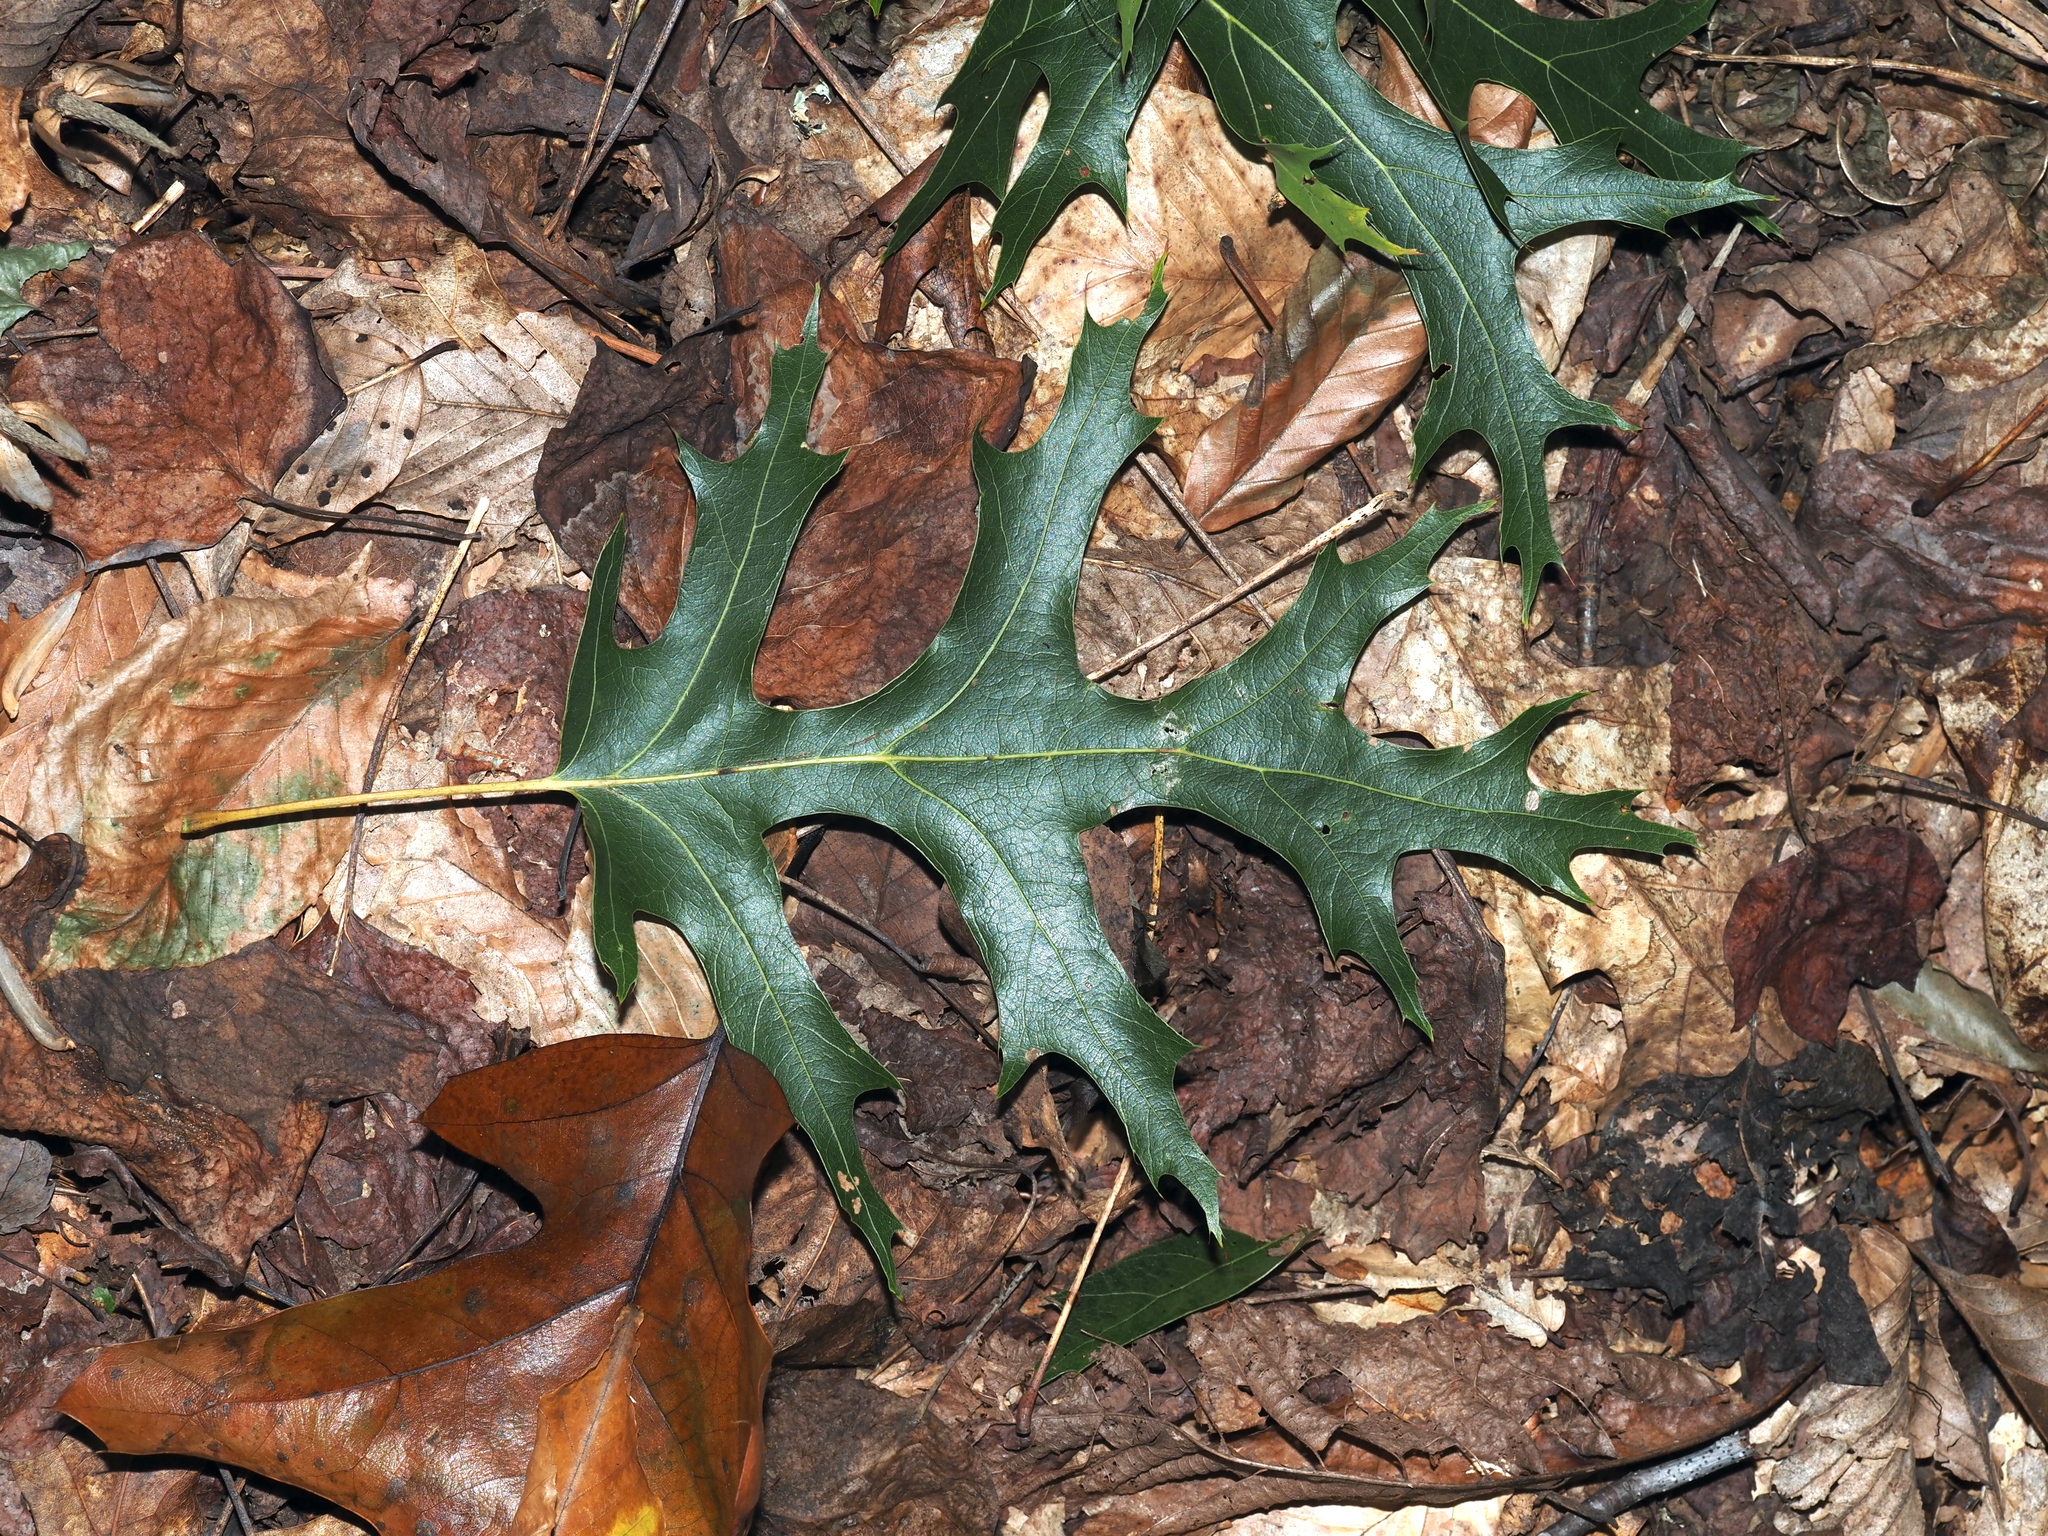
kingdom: Plantae
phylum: Tracheophyta
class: Magnoliopsida
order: Fagales
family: Fagaceae
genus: Quercus
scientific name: Quercus coccinea
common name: Scarlet oak
